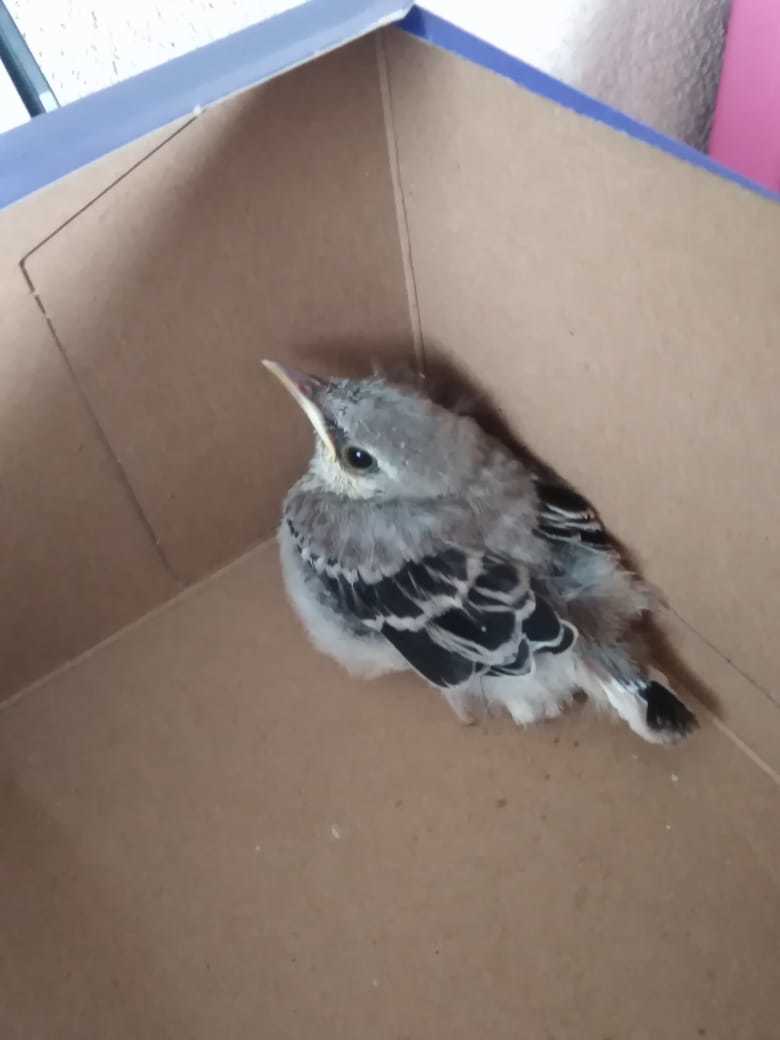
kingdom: Animalia
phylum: Chordata
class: Aves
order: Passeriformes
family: Mimidae
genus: Mimus
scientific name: Mimus gilvus
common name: Tropical mockingbird
